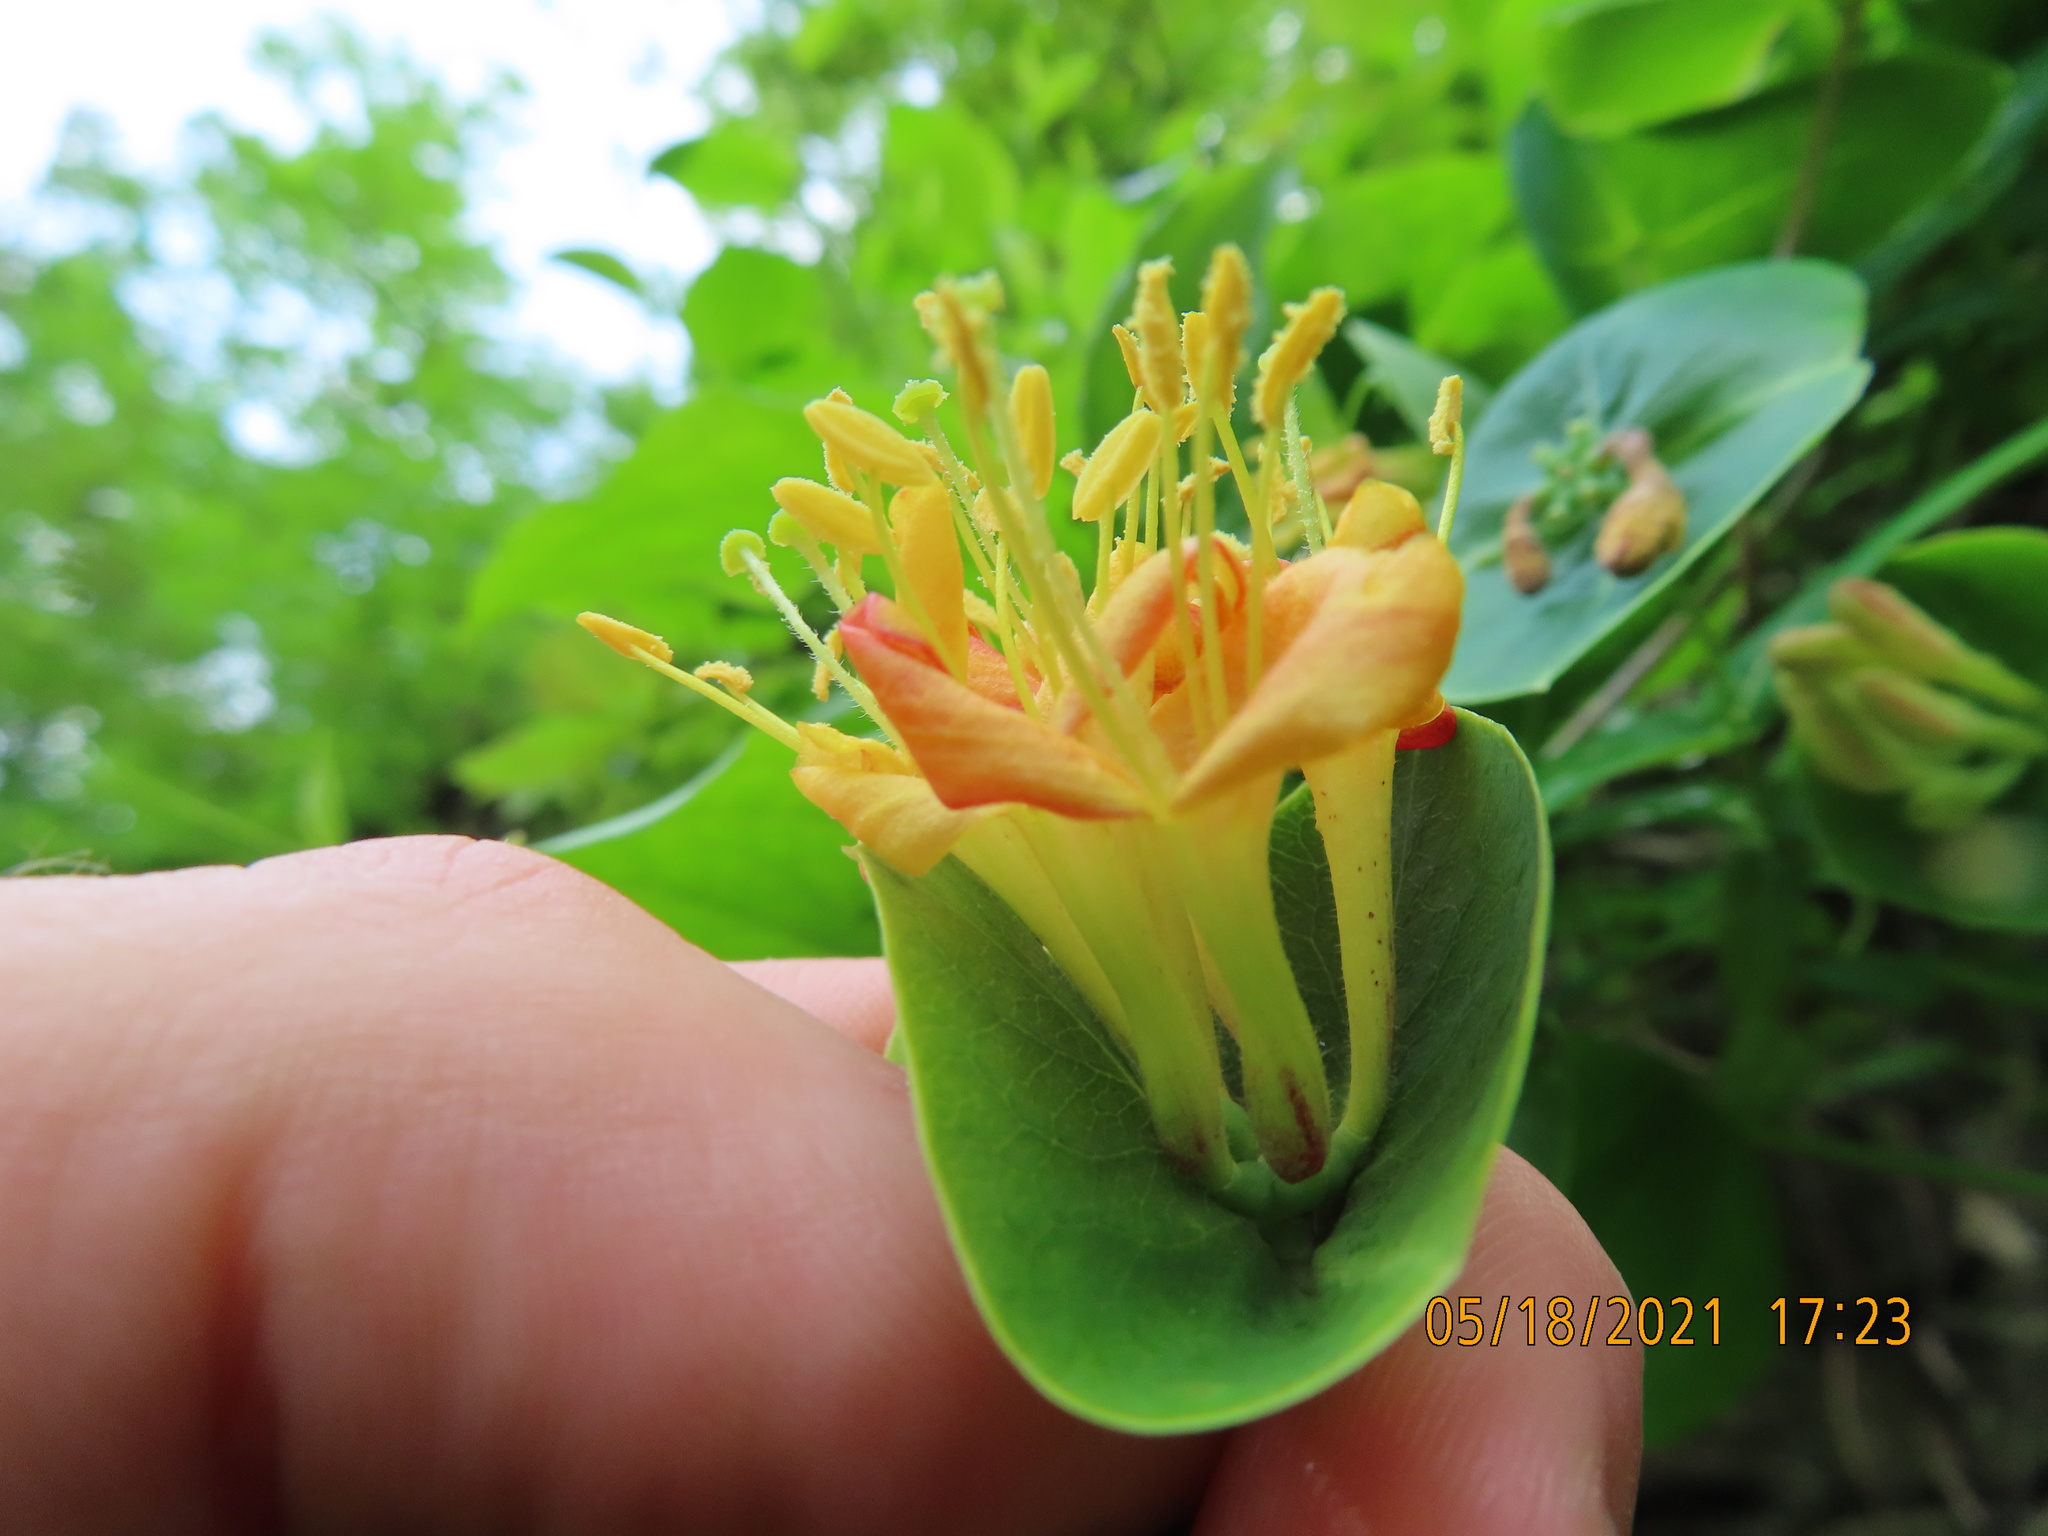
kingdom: Plantae
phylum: Tracheophyta
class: Magnoliopsida
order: Dipsacales
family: Caprifoliaceae
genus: Lonicera
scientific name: Lonicera dioica
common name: Limber honeysuckle
